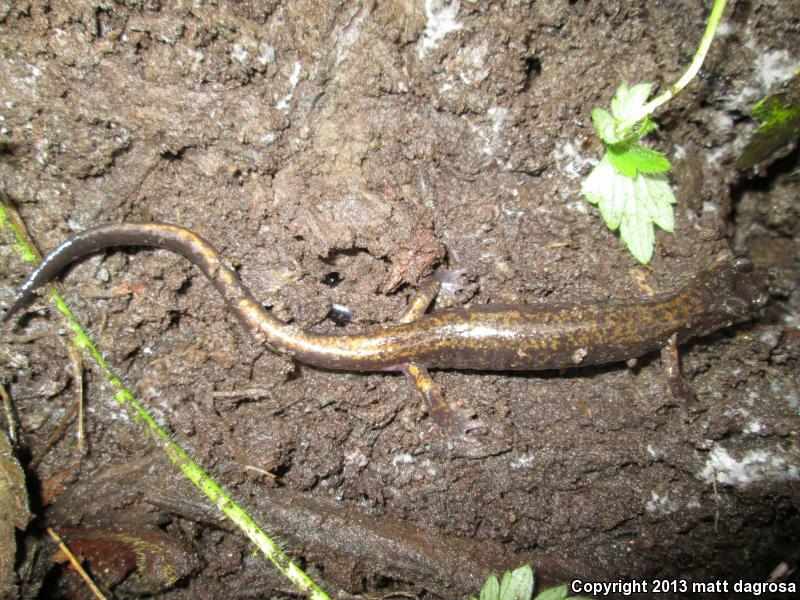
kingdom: Animalia
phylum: Chordata
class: Amphibia
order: Caudata
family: Plethodontidae
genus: Plethodon
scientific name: Plethodon dunni
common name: Dunn's salamander
